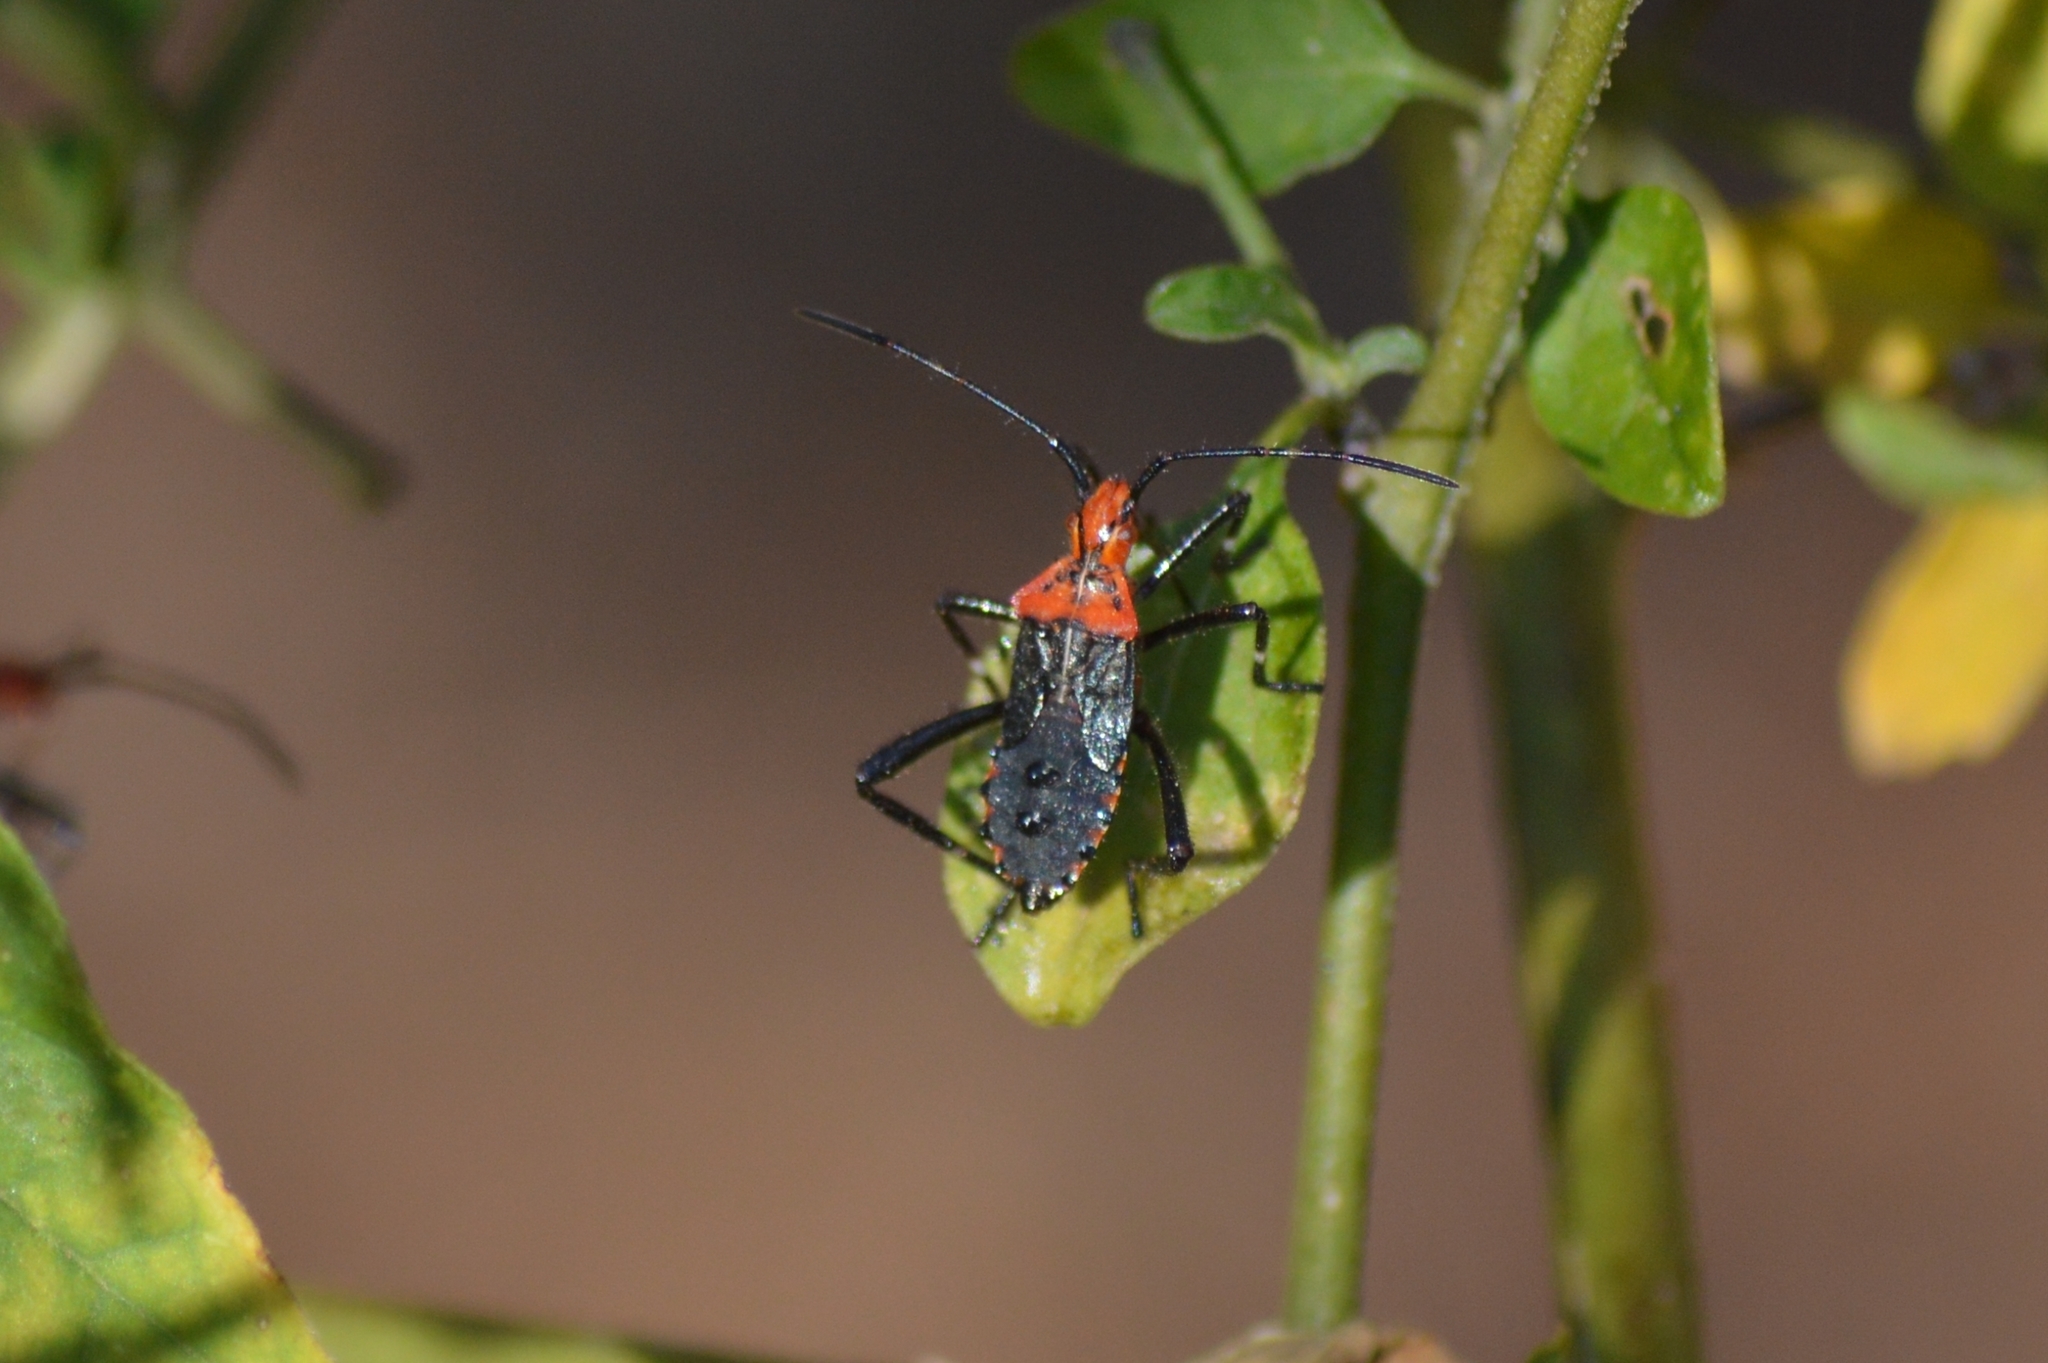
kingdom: Animalia
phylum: Arthropoda
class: Insecta
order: Hemiptera
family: Coreidae
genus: Phthiacnemia
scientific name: Phthiacnemia picta
